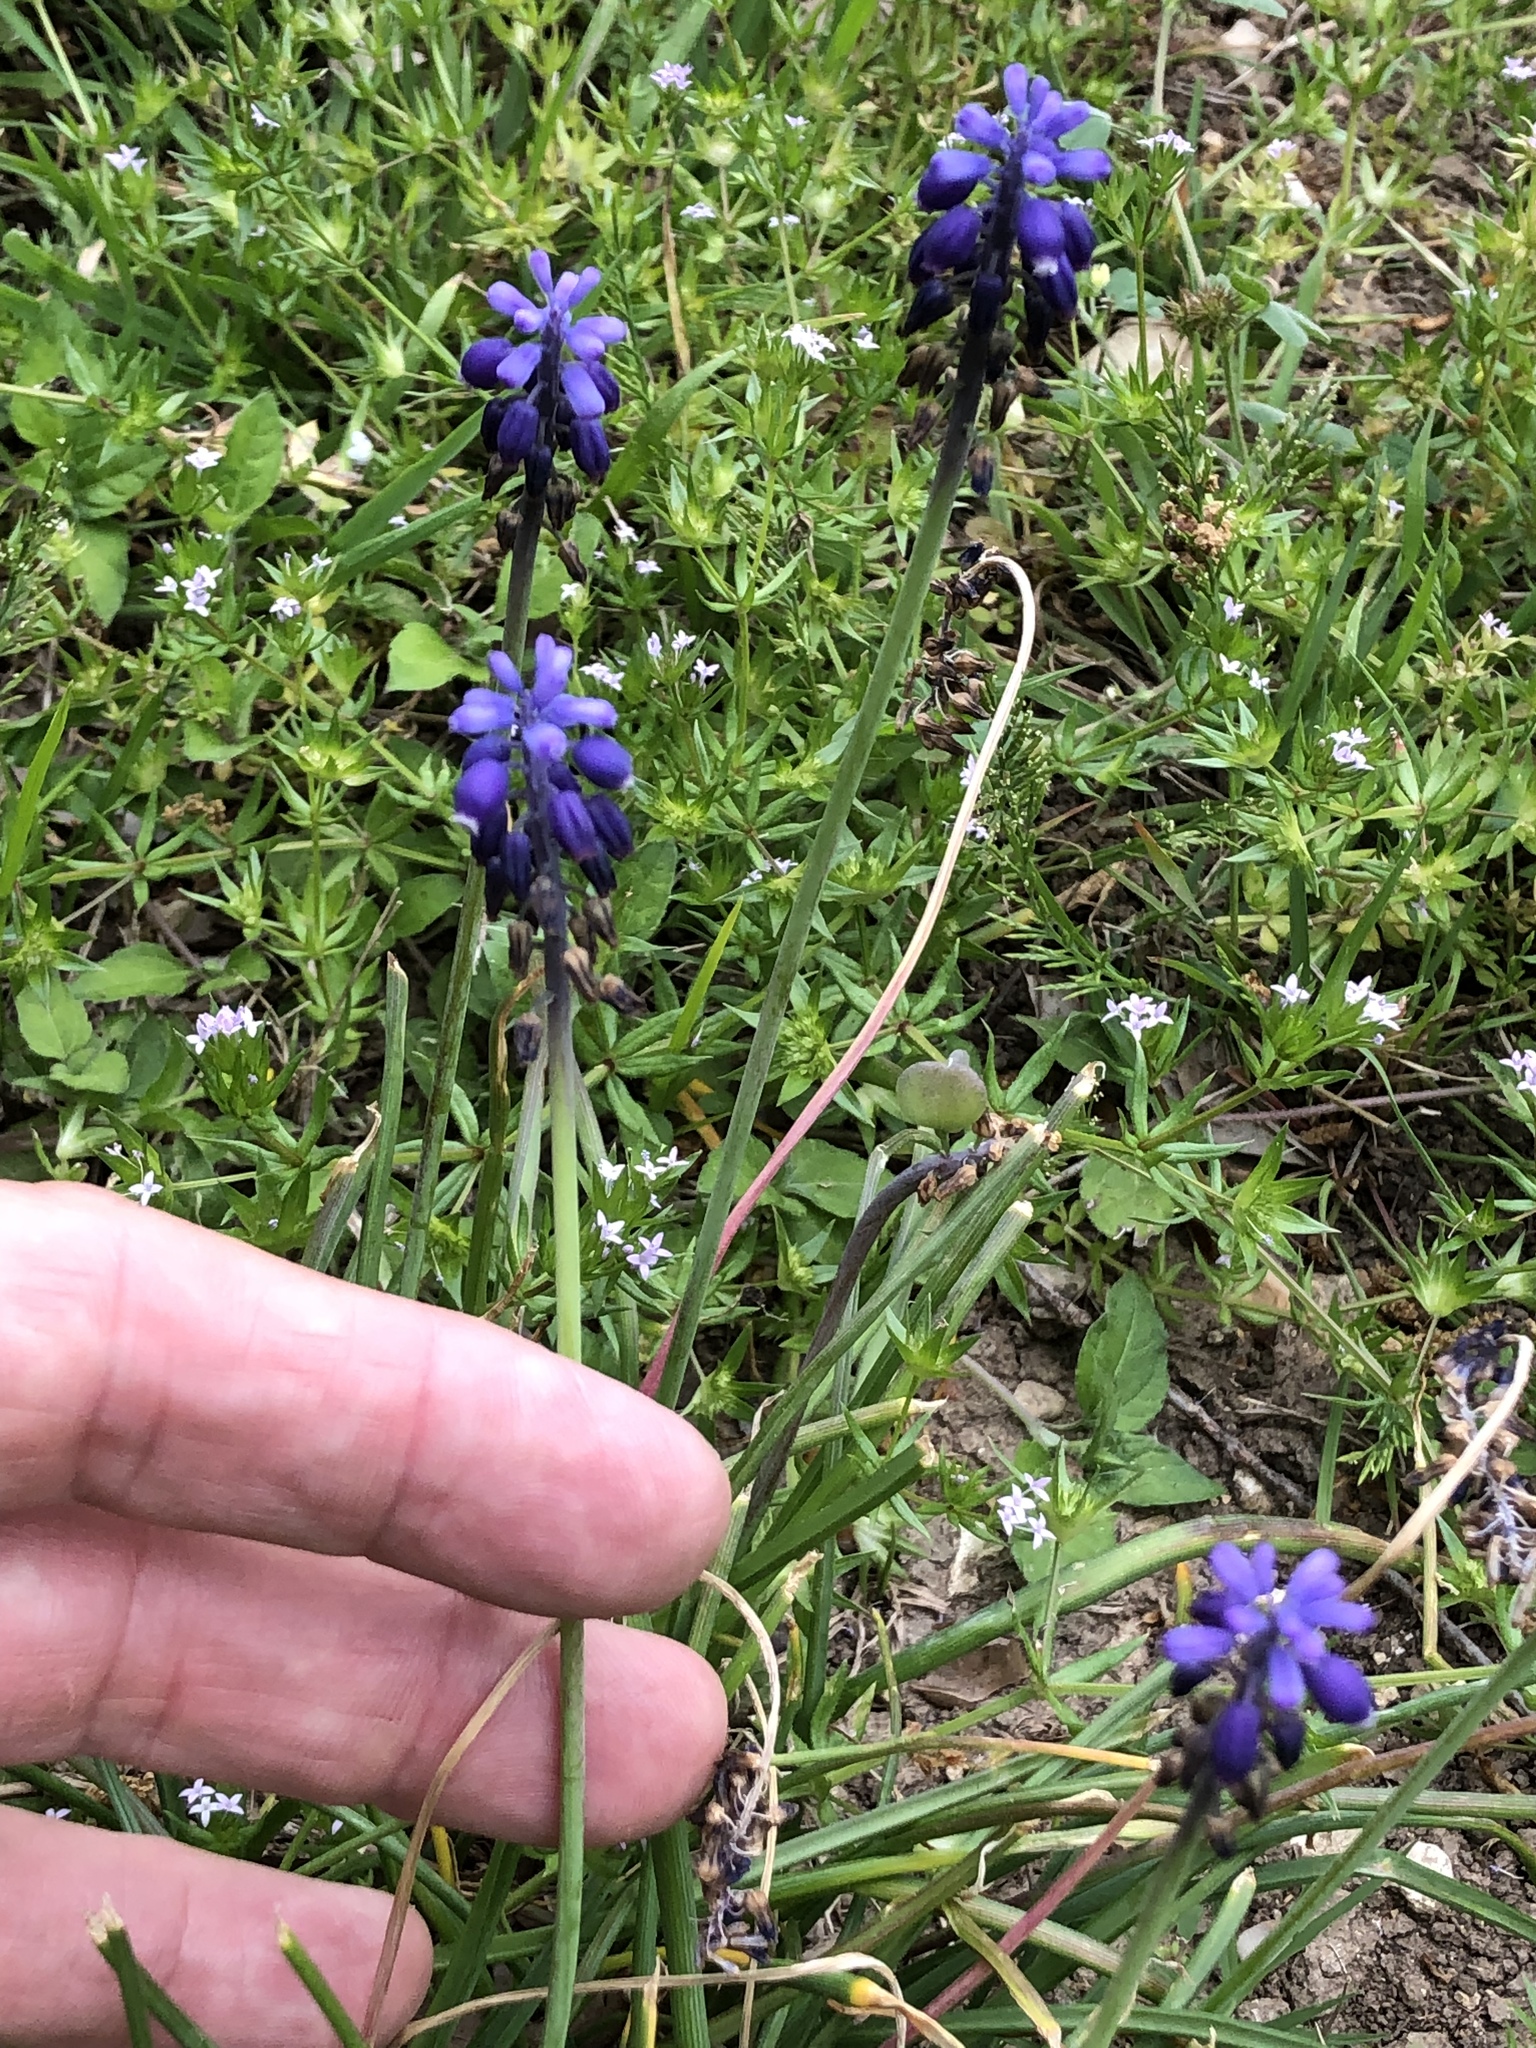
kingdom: Plantae
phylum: Tracheophyta
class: Liliopsida
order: Asparagales
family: Asparagaceae
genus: Muscari
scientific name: Muscari neglectum
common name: Grape-hyacinth
